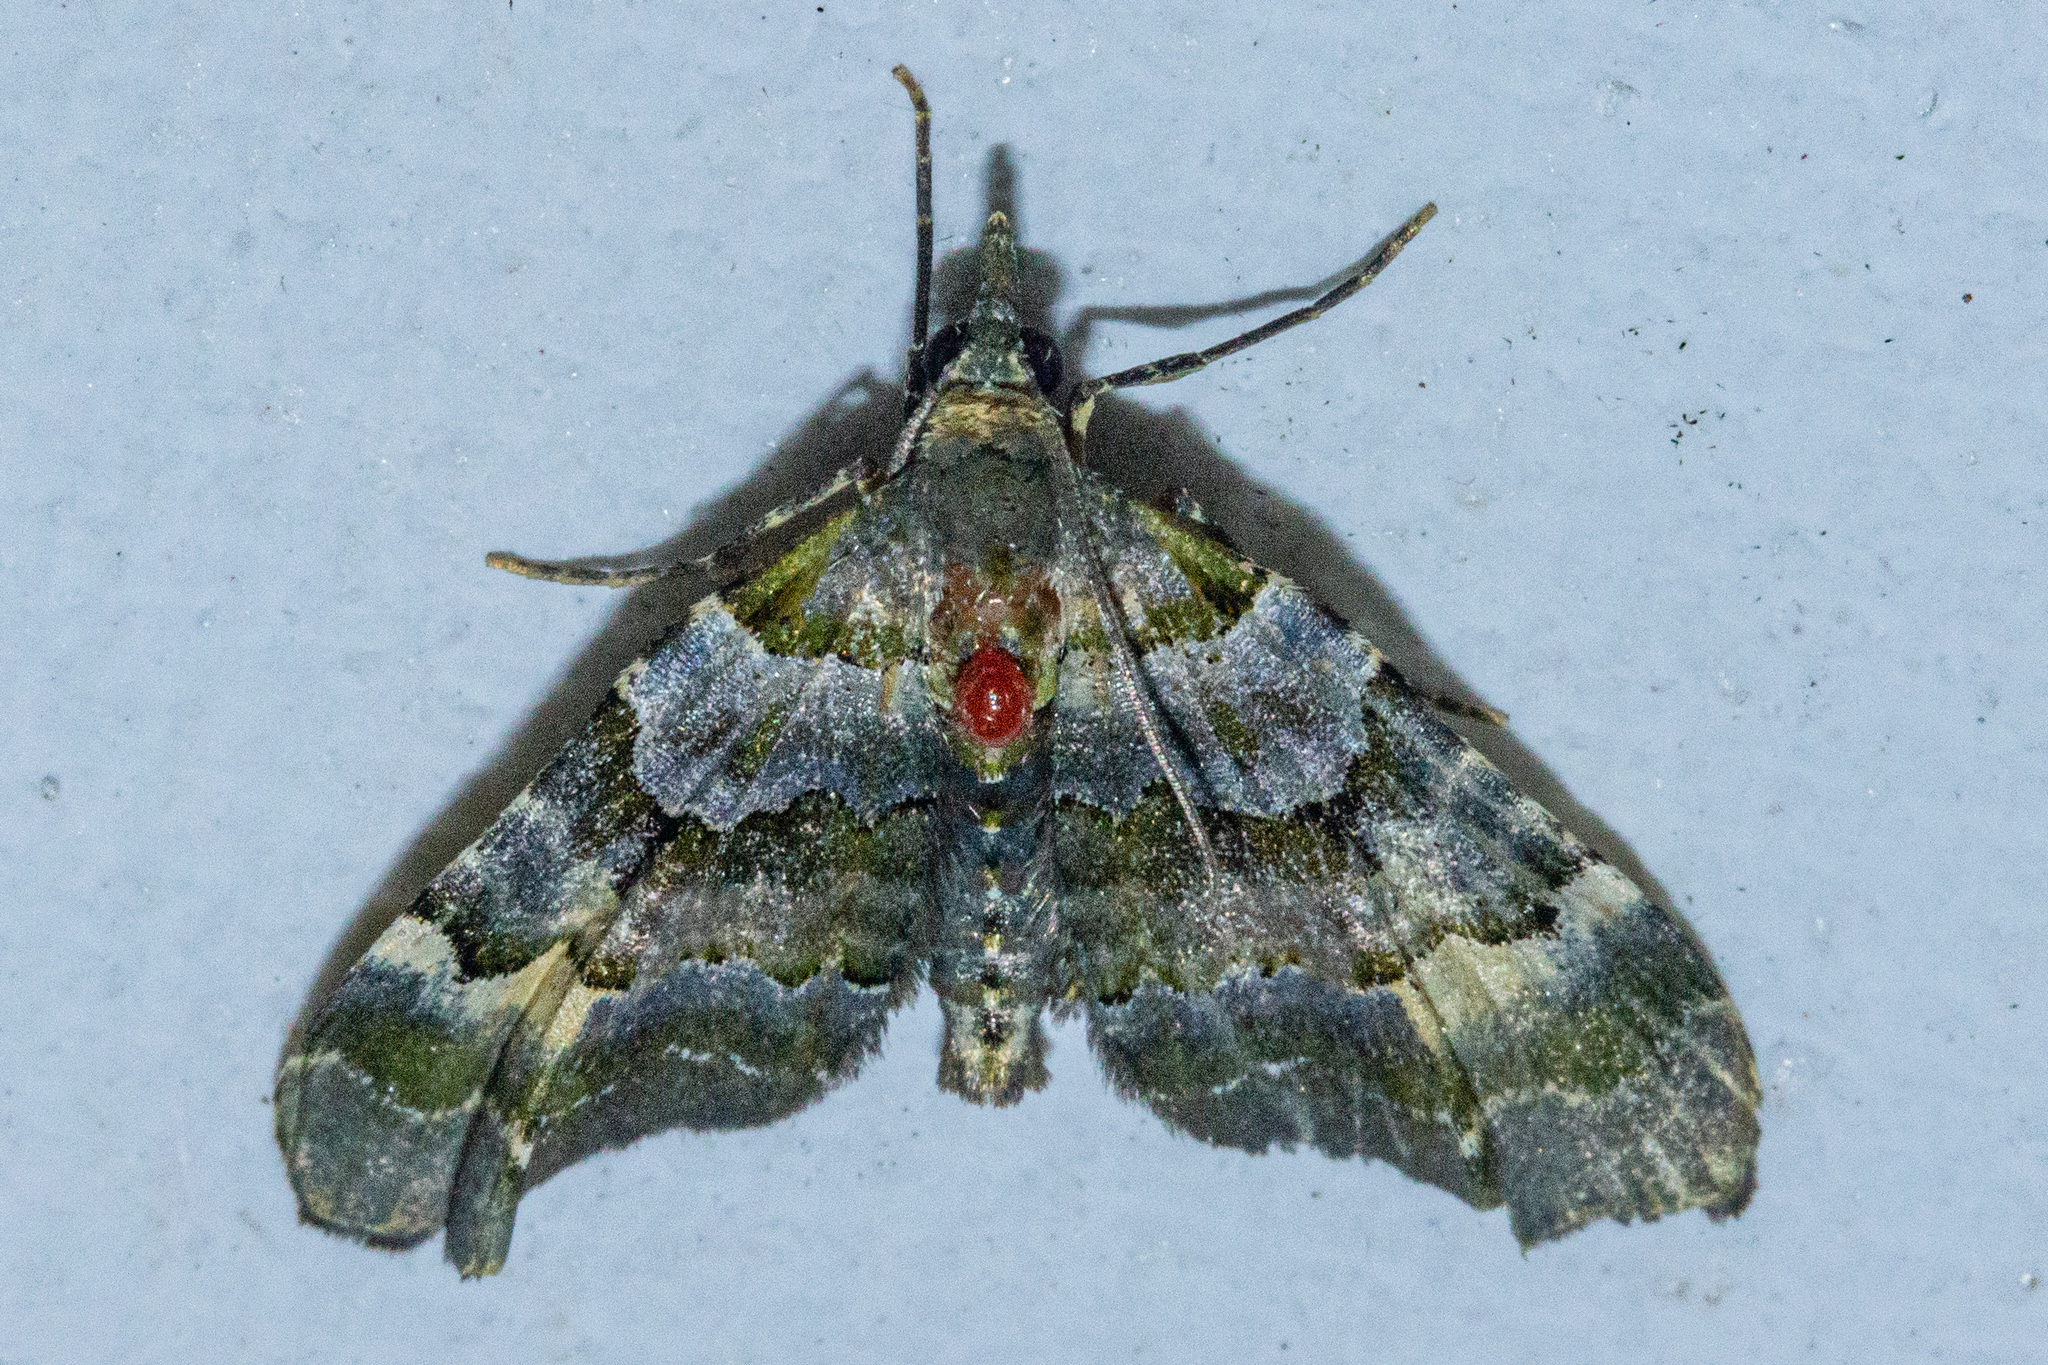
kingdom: Animalia
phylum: Arthropoda
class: Insecta
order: Lepidoptera
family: Geometridae
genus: Elvia
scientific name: Elvia glaucata
